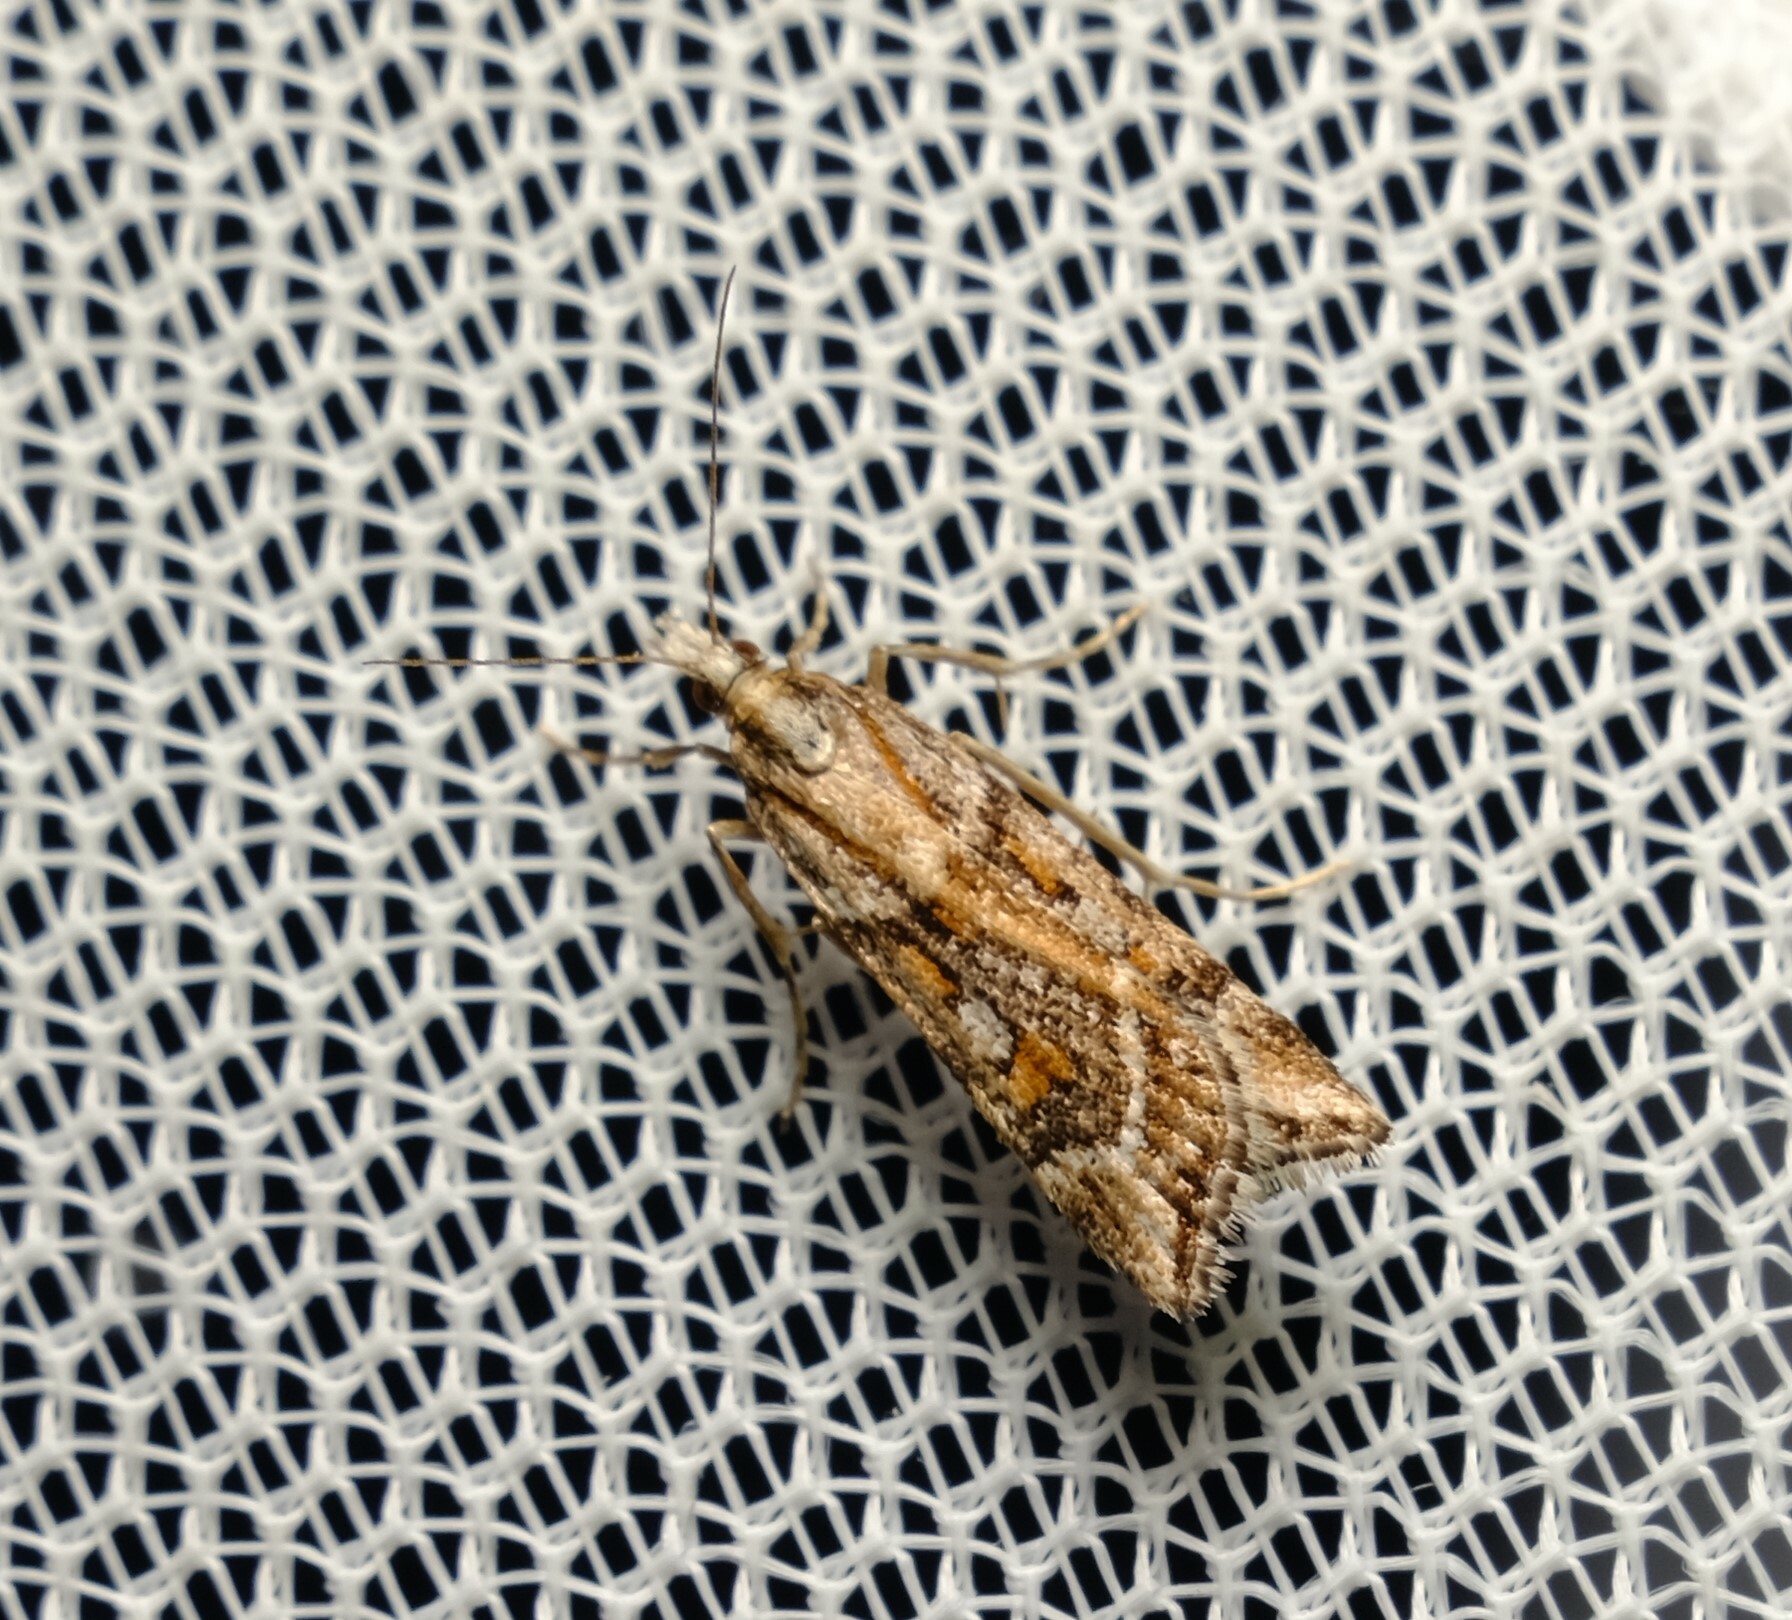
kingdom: Animalia
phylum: Arthropoda
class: Insecta
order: Lepidoptera
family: Crambidae
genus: Scoparia
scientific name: Scoparia ithyntis
